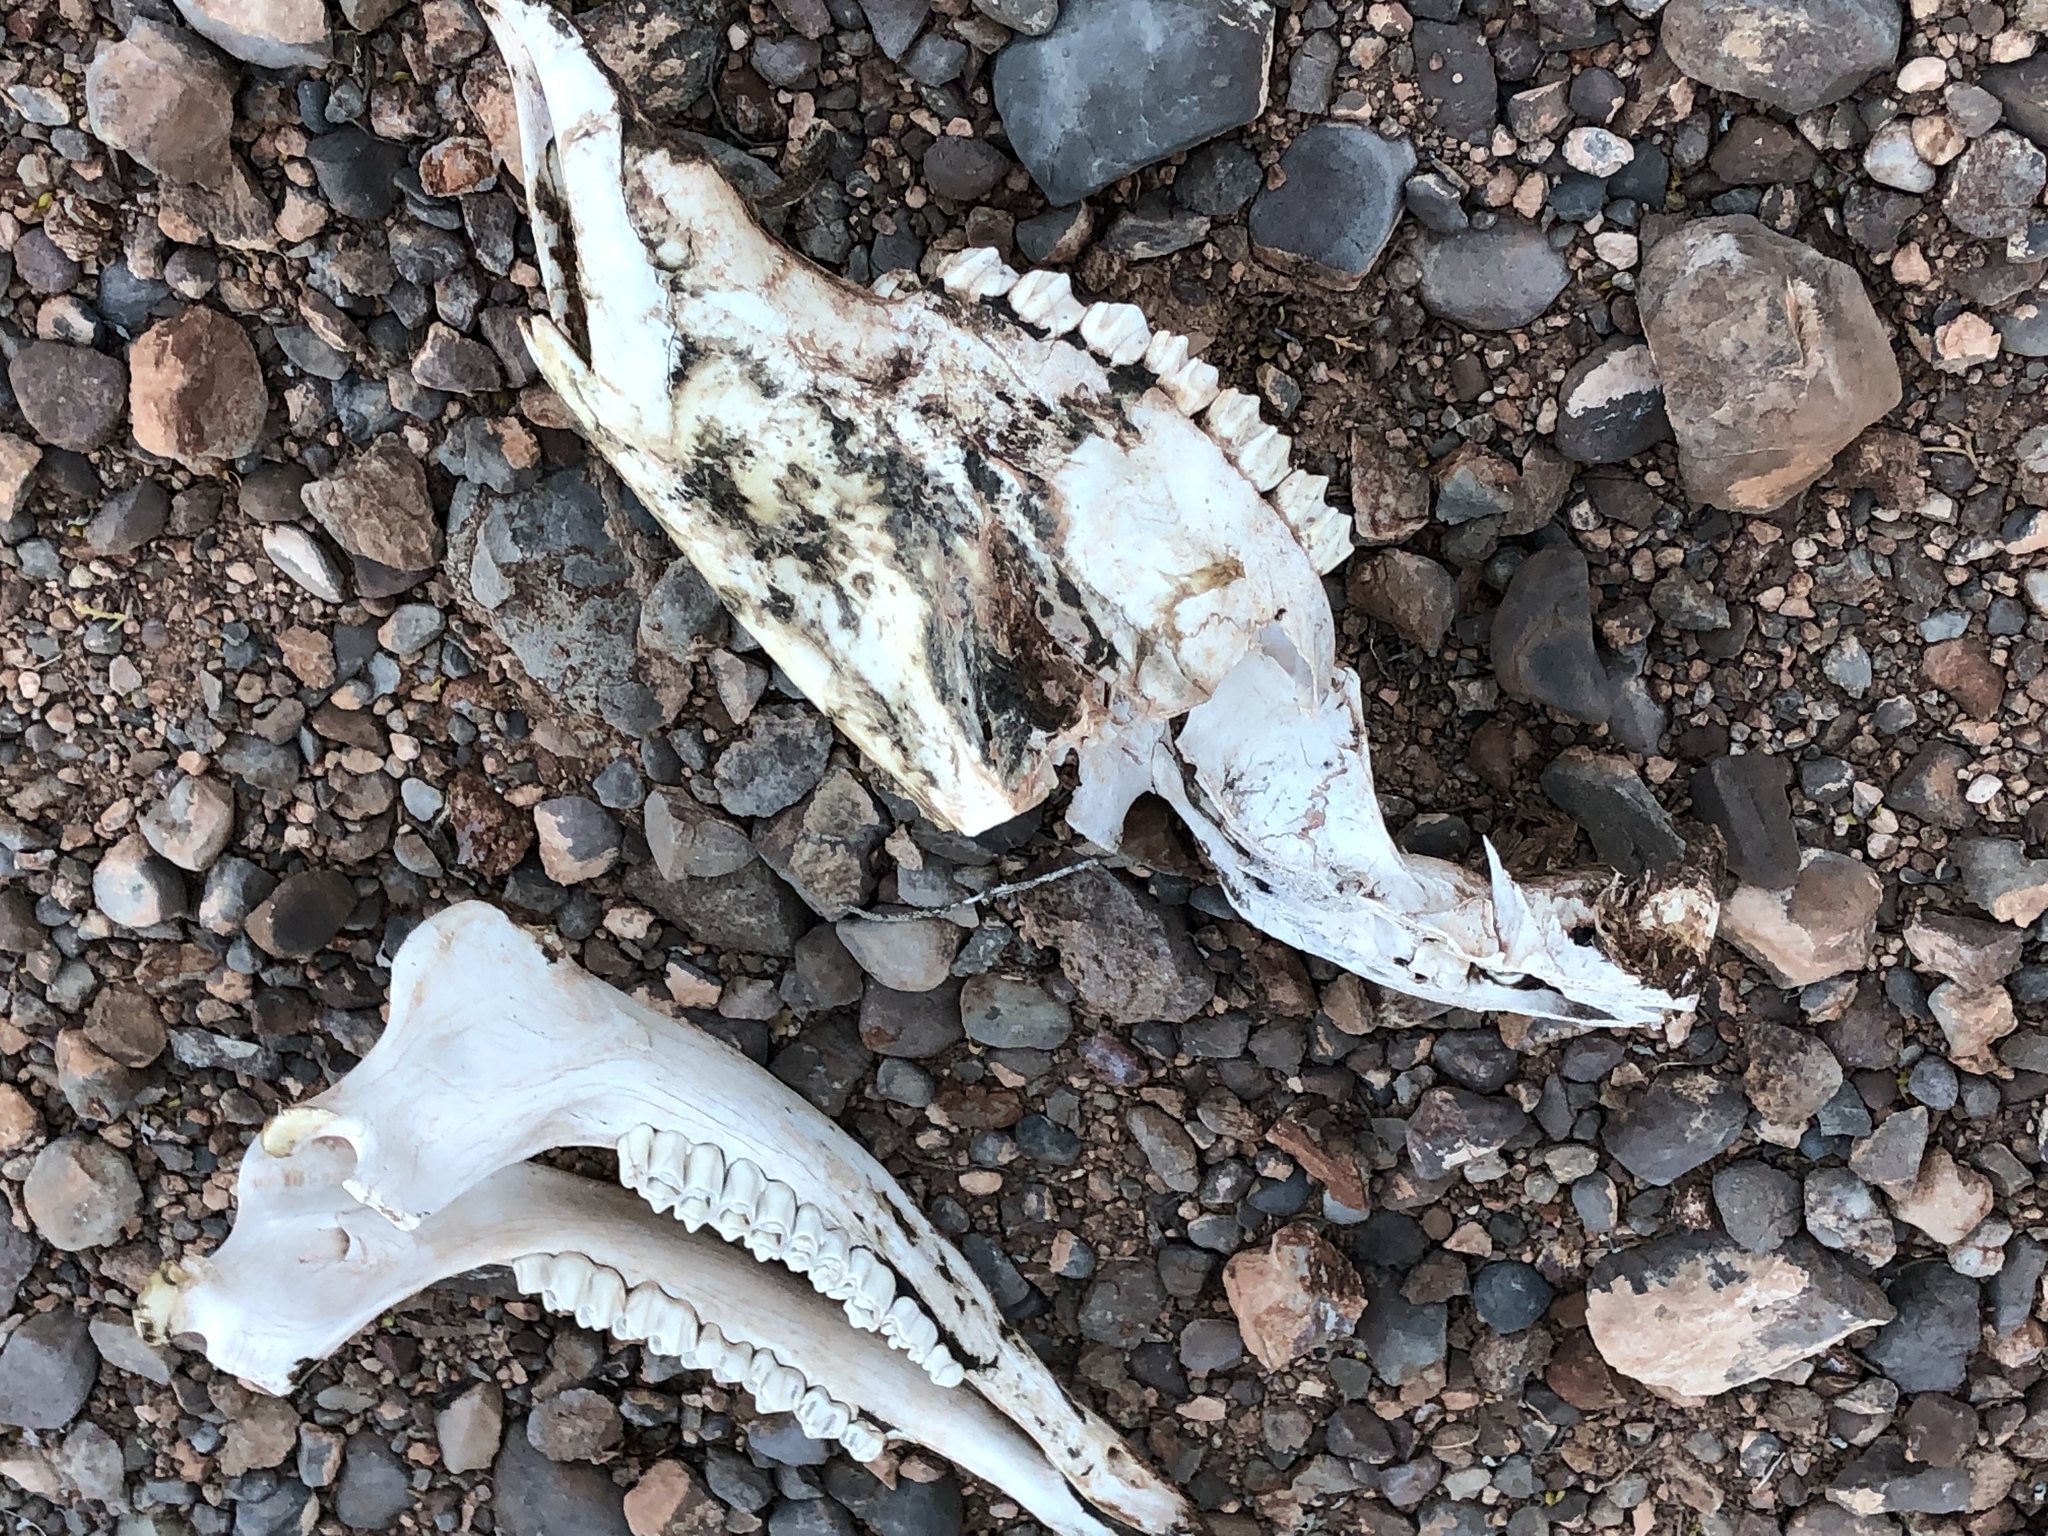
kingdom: Animalia
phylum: Chordata
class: Mammalia
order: Artiodactyla
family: Cervidae
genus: Cervus
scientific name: Cervus elaphus
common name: Red deer
